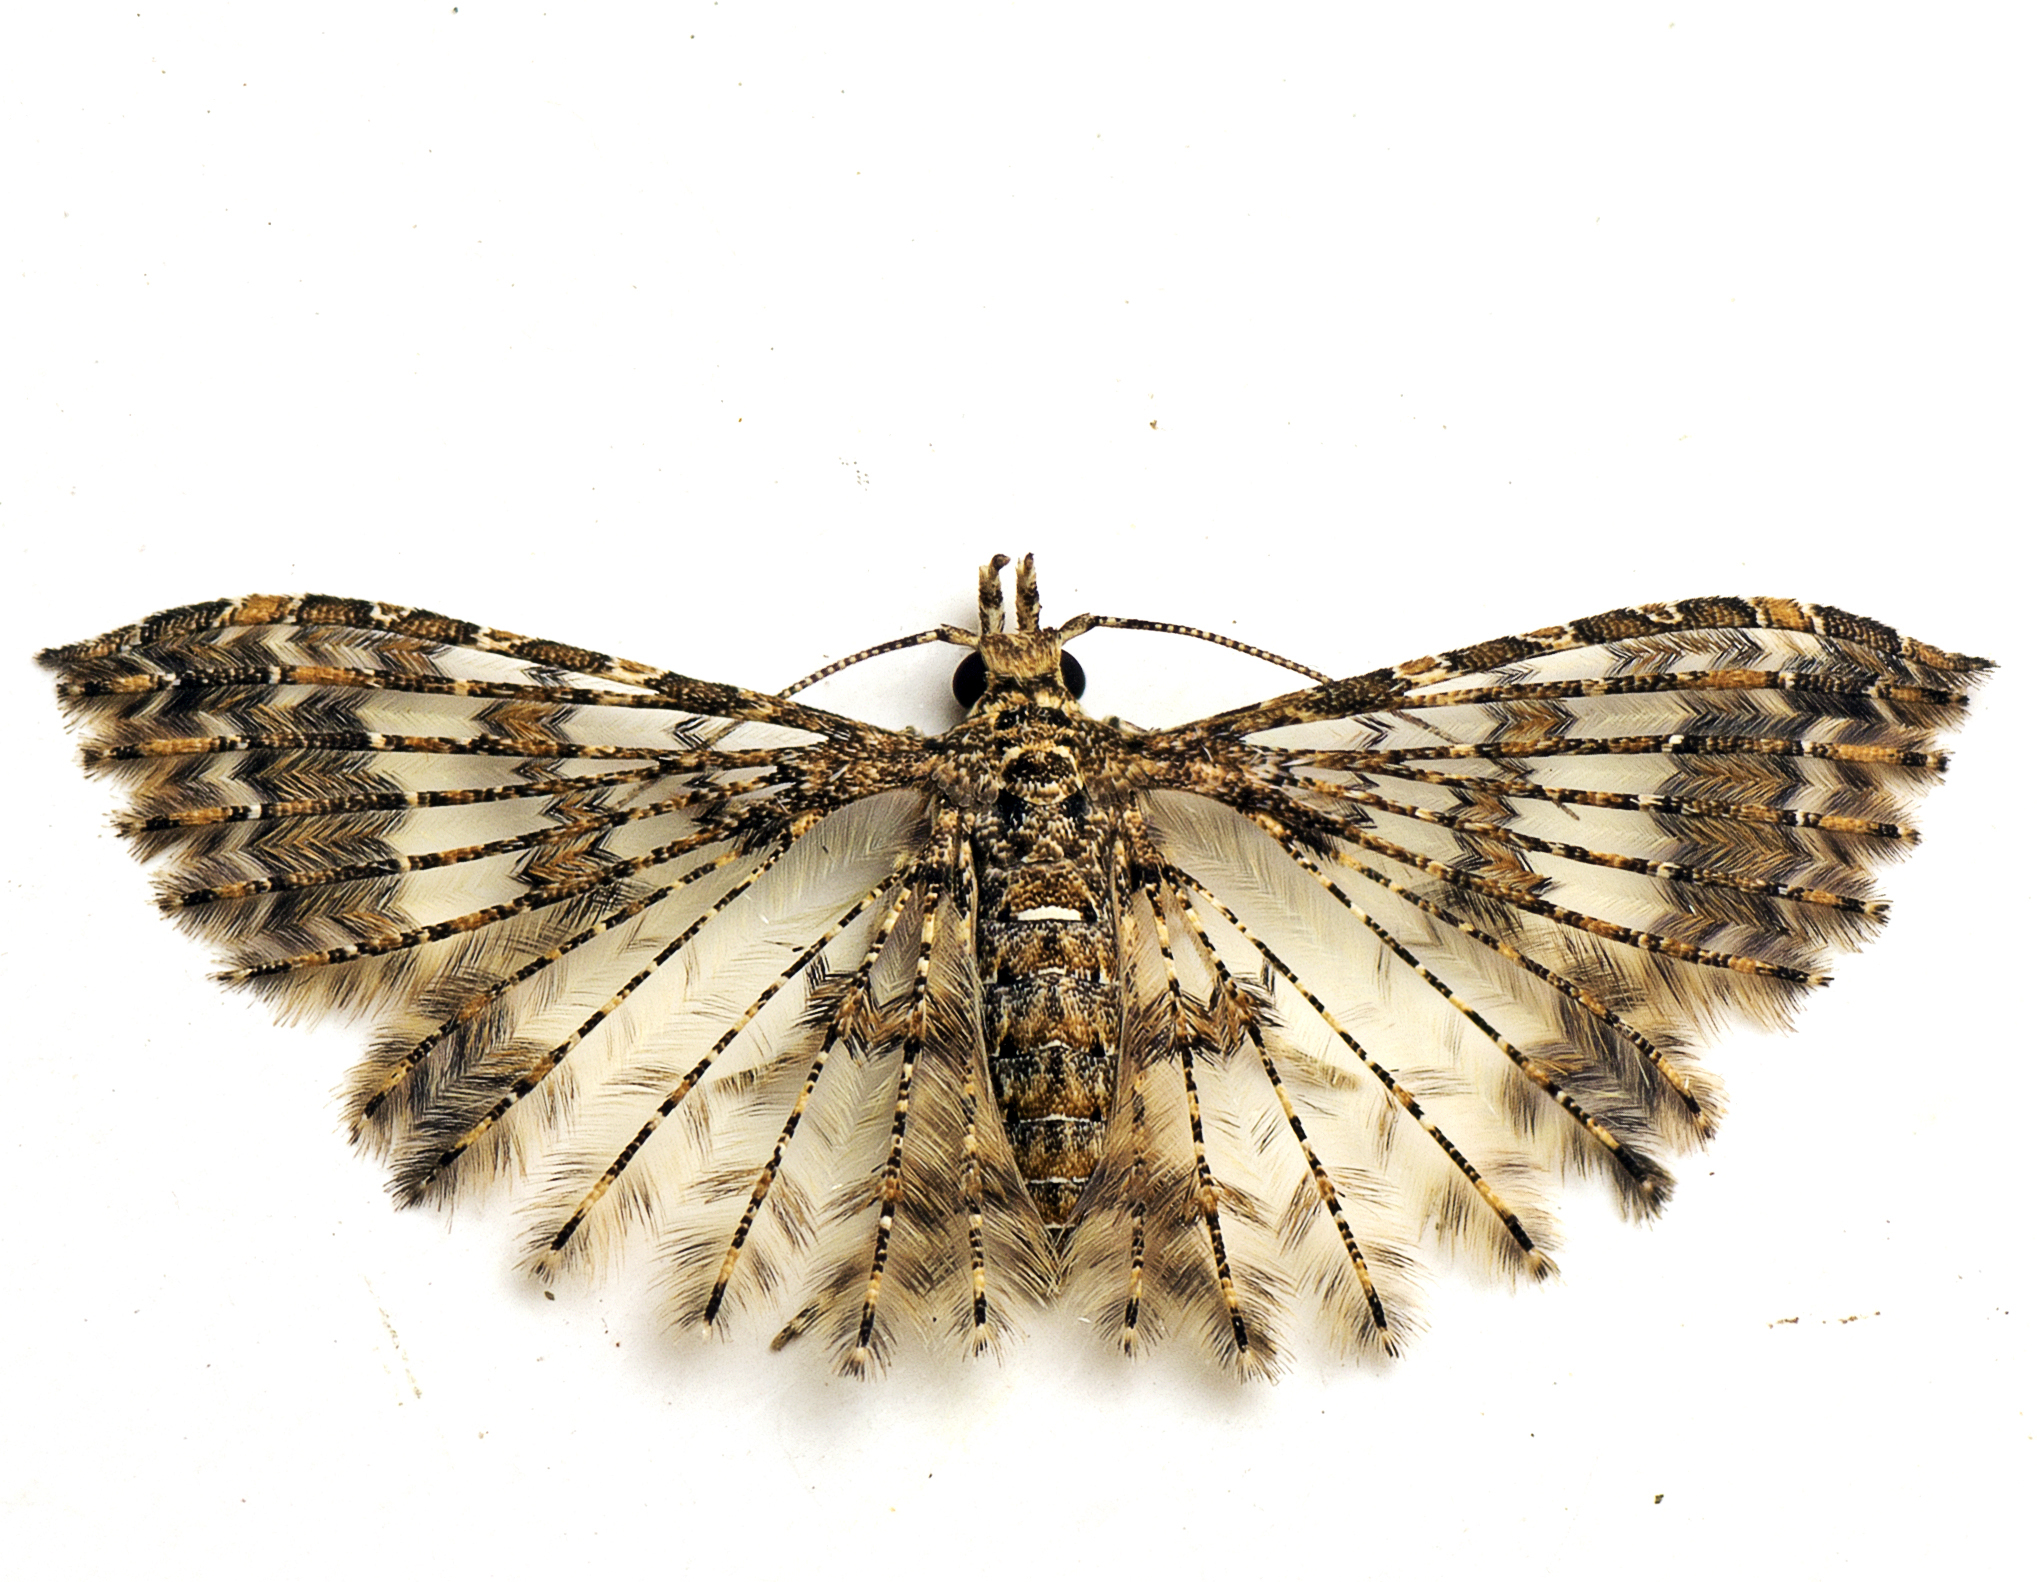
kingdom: Animalia
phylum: Arthropoda
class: Insecta
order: Lepidoptera
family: Alucitidae
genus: Alucita
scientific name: Alucita phricodes
